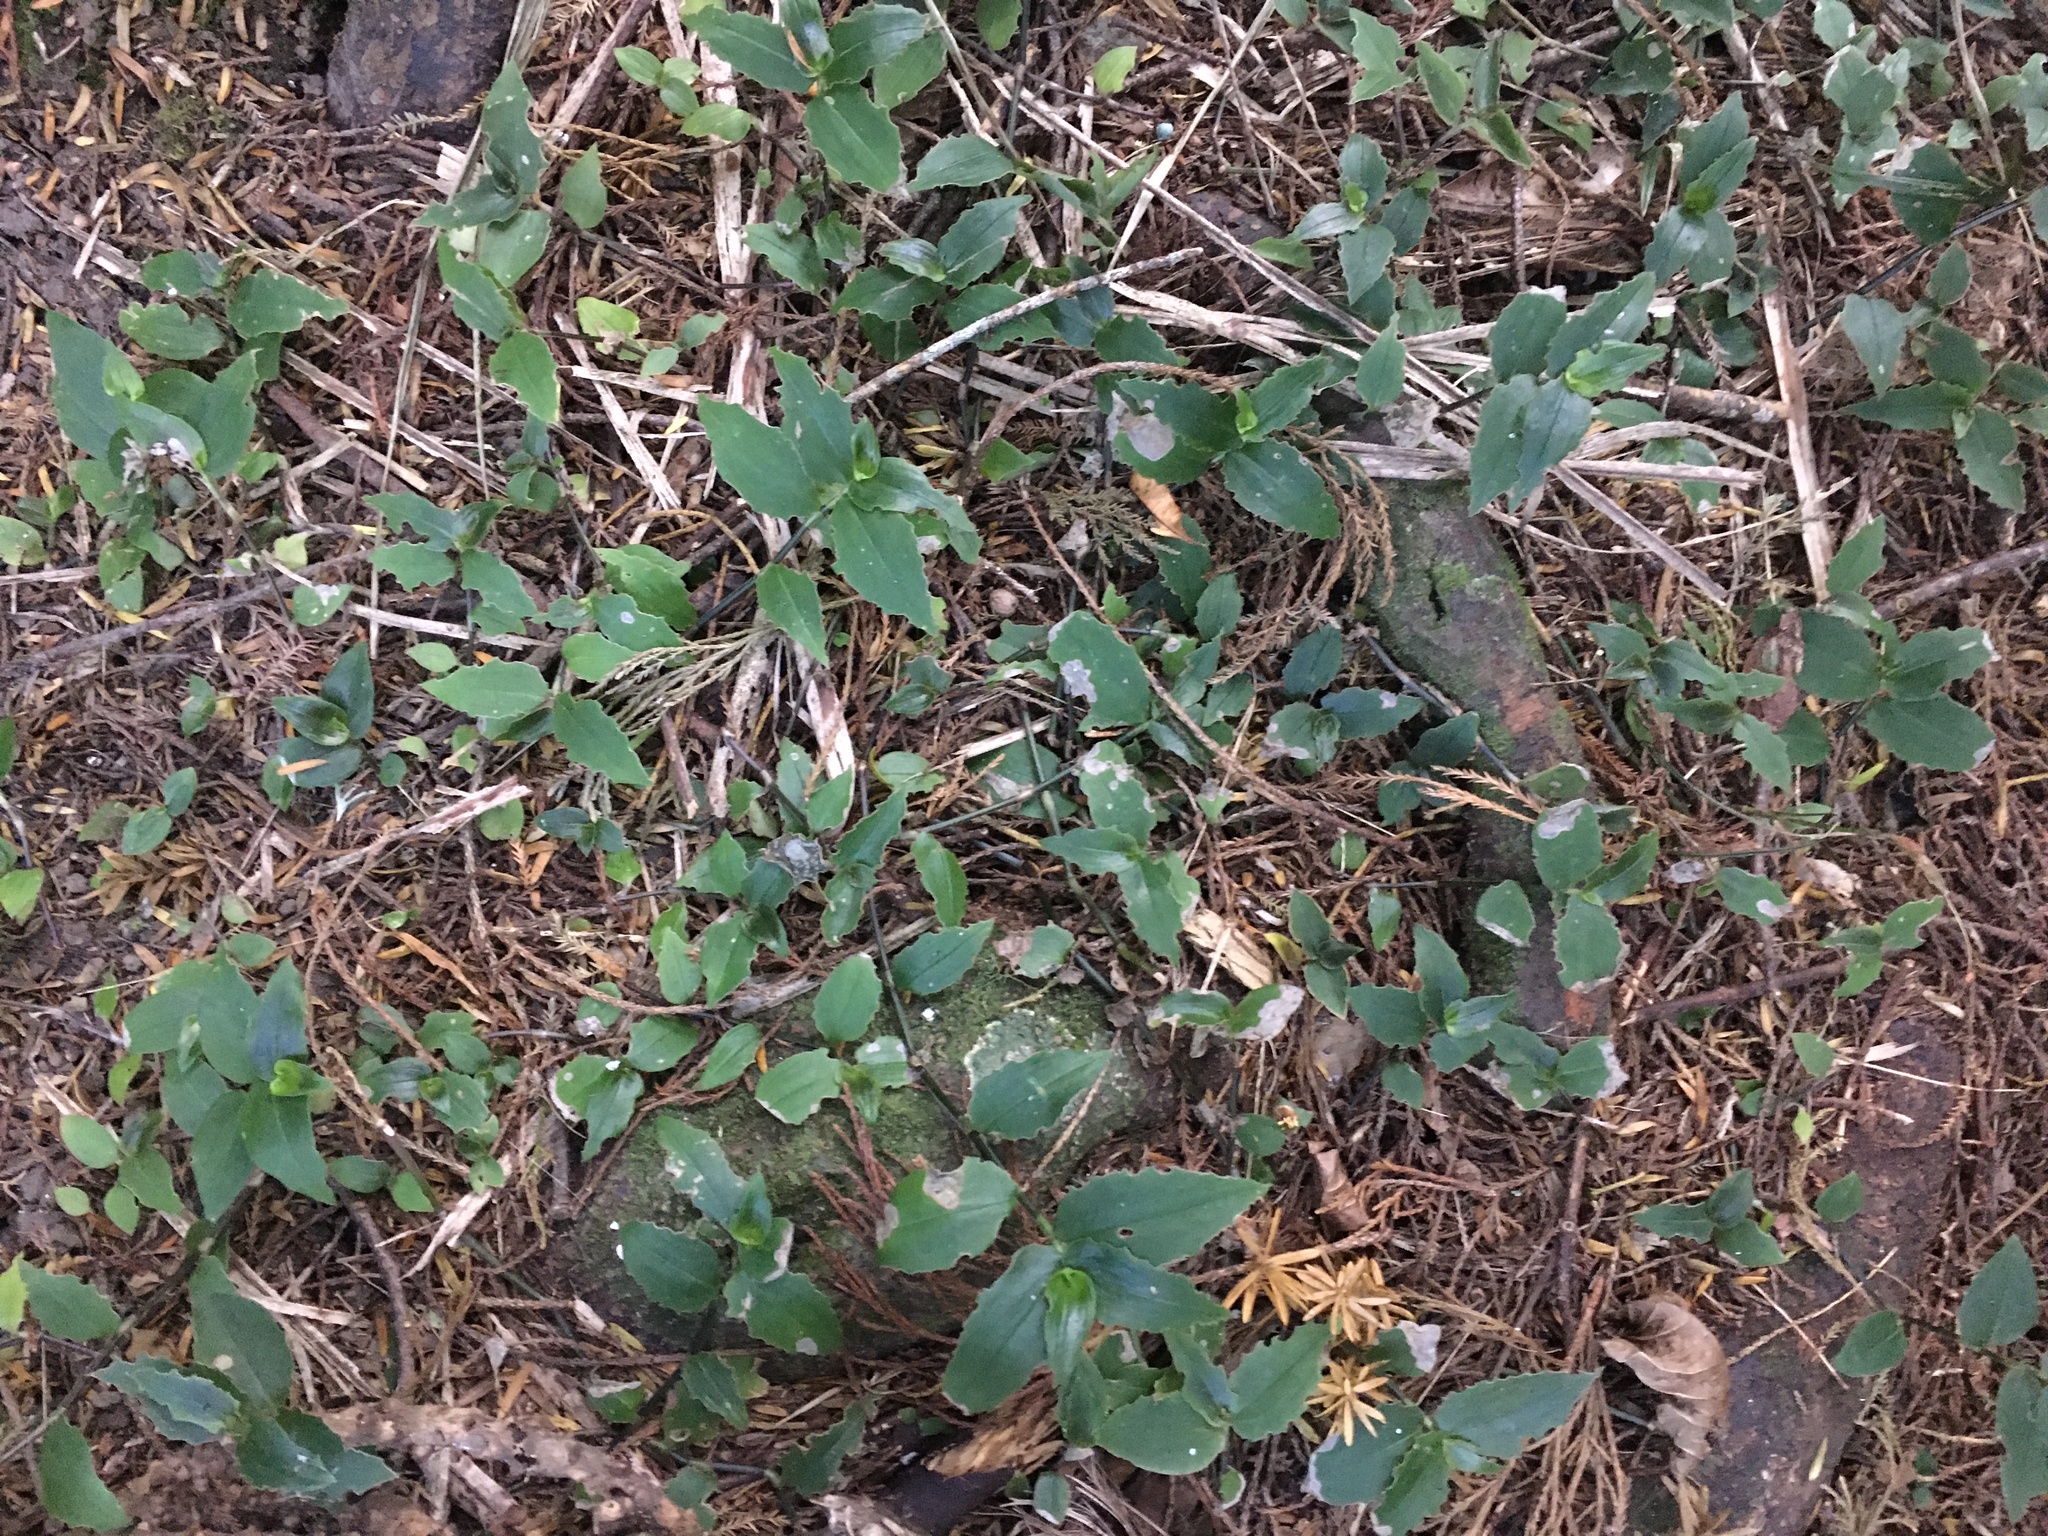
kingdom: Plantae
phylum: Tracheophyta
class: Liliopsida
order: Commelinales
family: Commelinaceae
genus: Tradescantia
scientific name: Tradescantia fluminensis
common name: Wandering-jew
